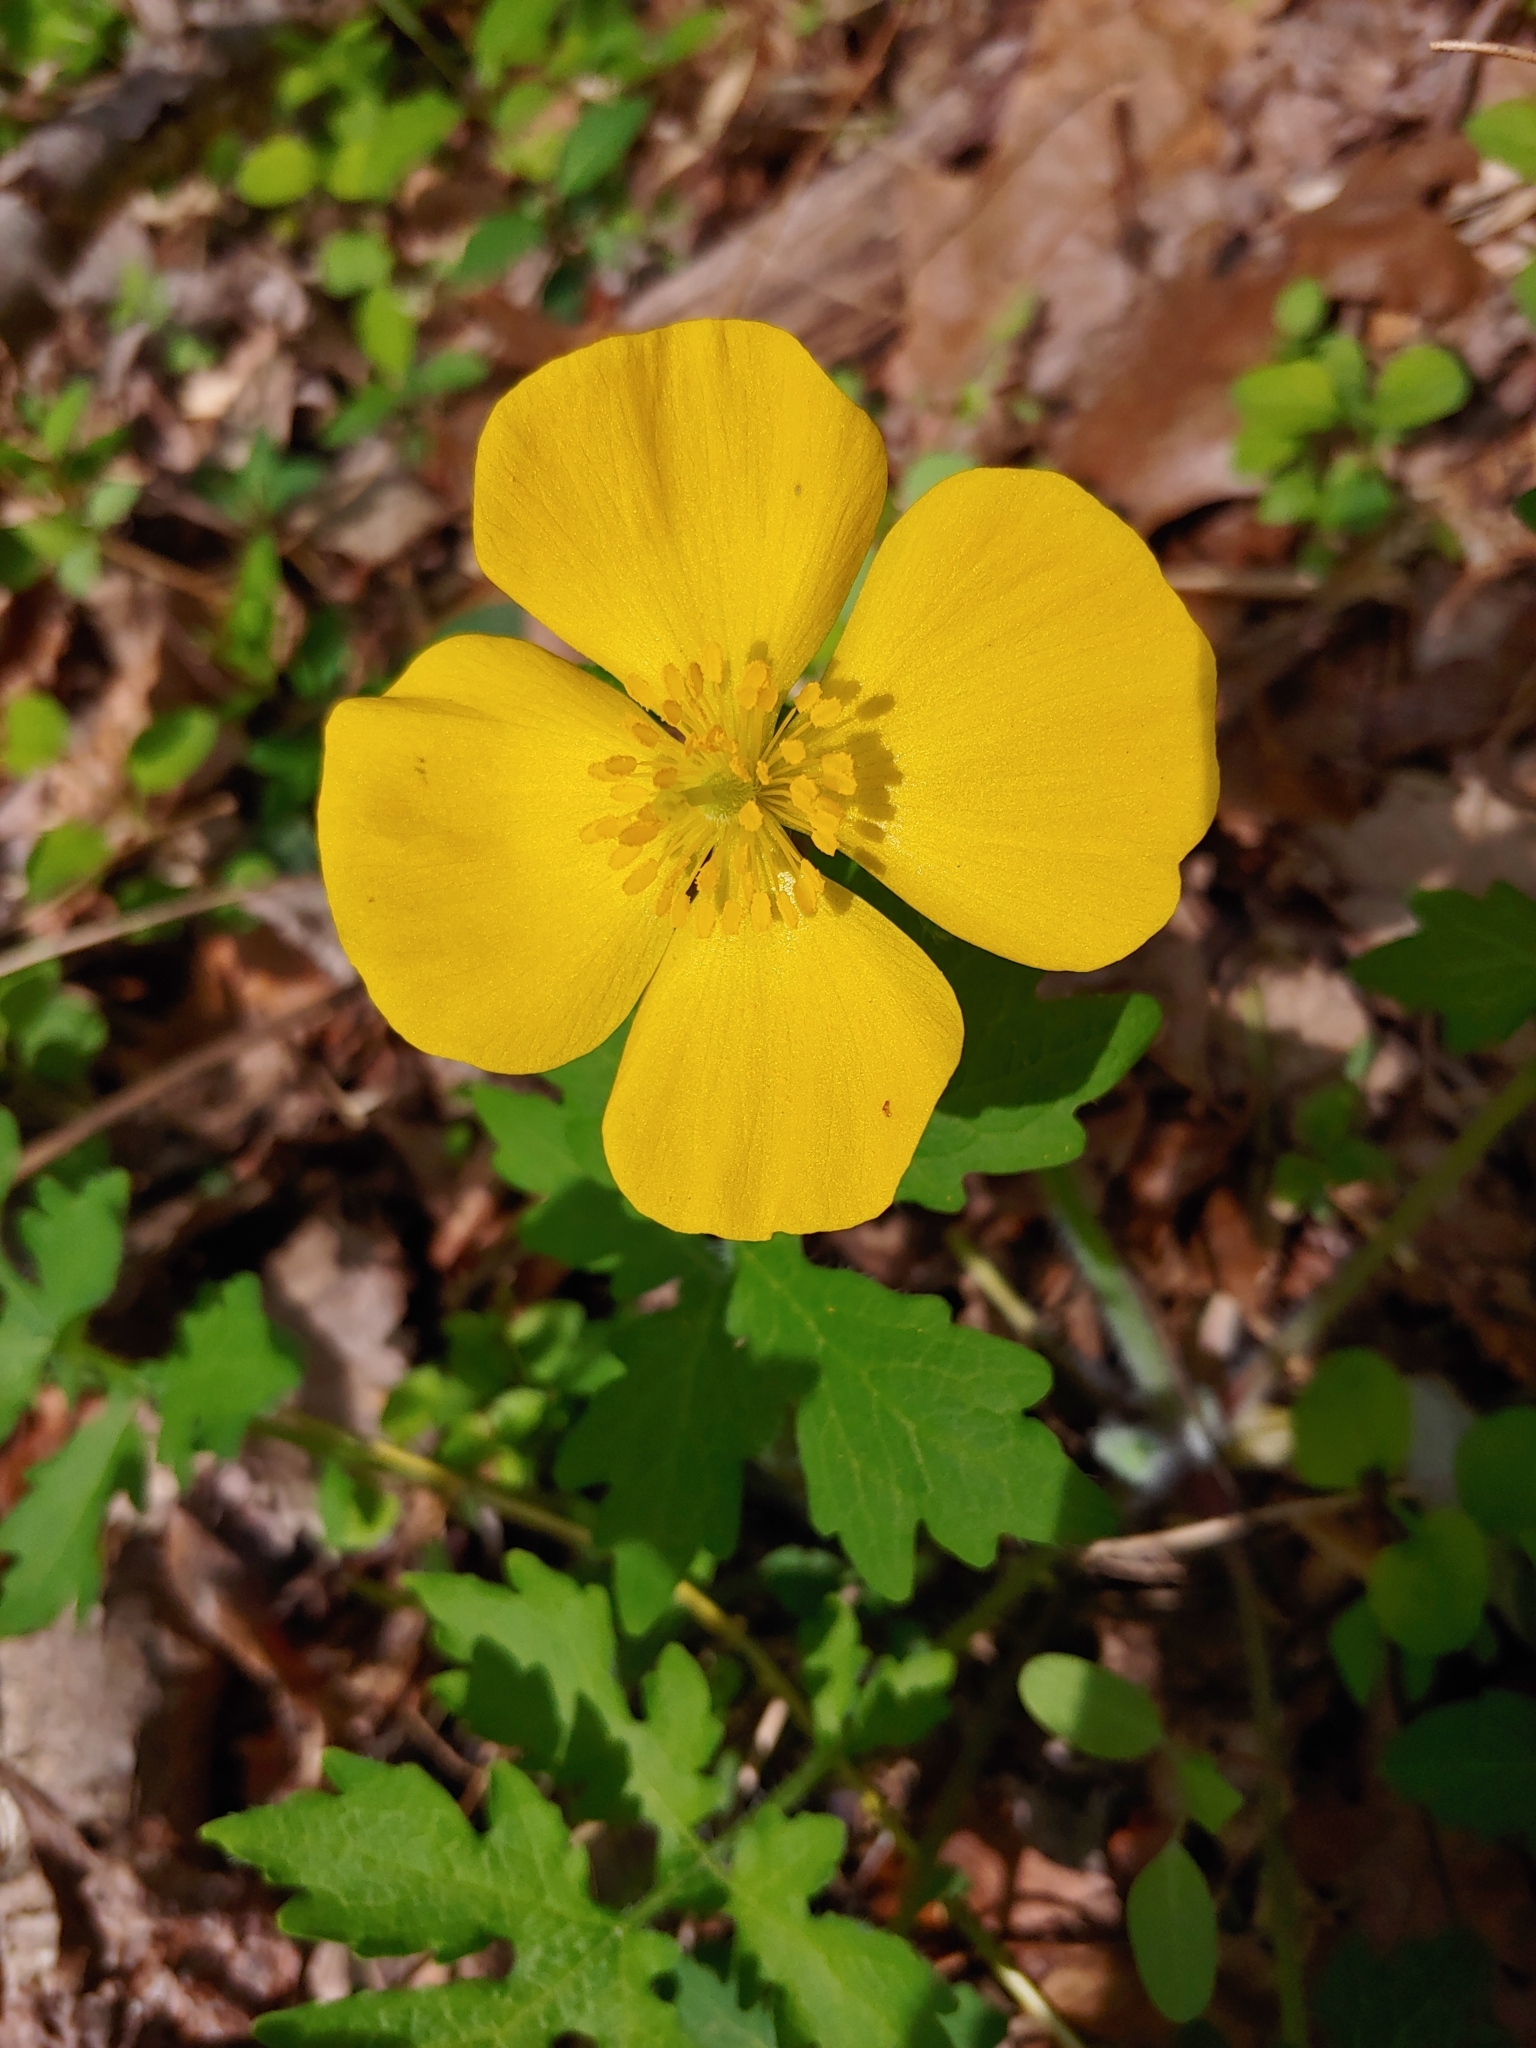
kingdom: Plantae
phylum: Tracheophyta
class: Magnoliopsida
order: Ranunculales
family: Papaveraceae
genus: Stylophorum
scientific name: Stylophorum diphyllum
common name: Celandine poppy
